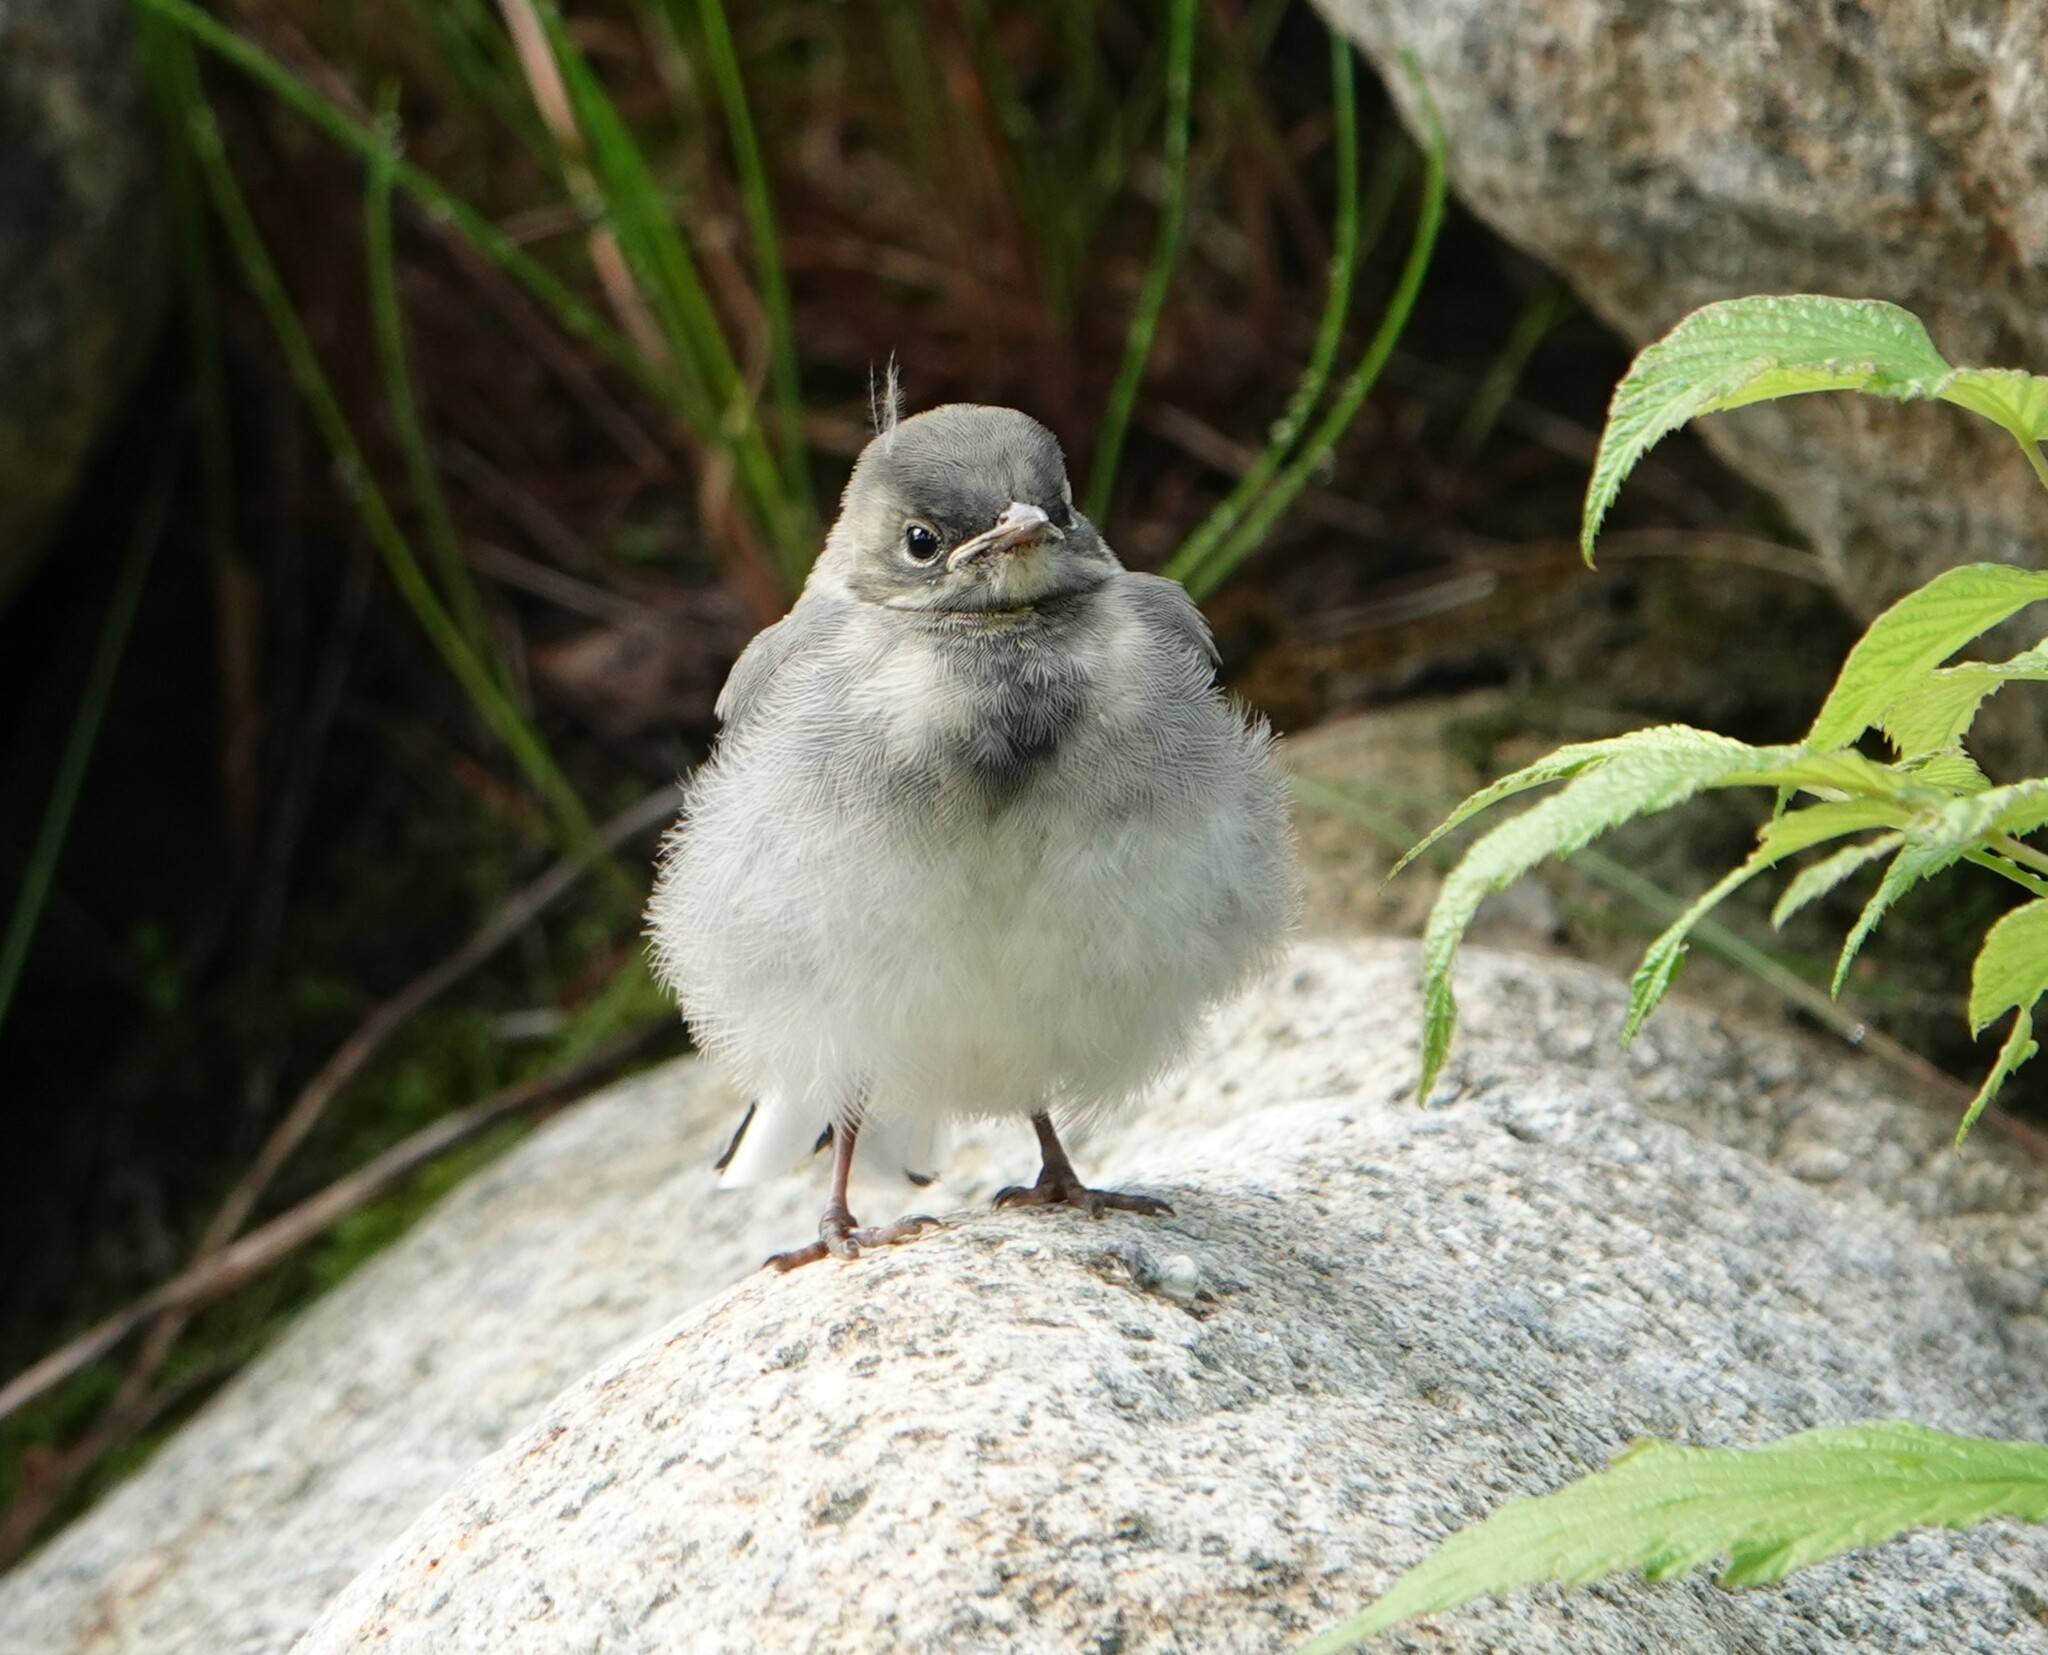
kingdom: Animalia
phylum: Chordata
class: Aves
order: Passeriformes
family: Motacillidae
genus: Motacilla
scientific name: Motacilla alba
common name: White wagtail
